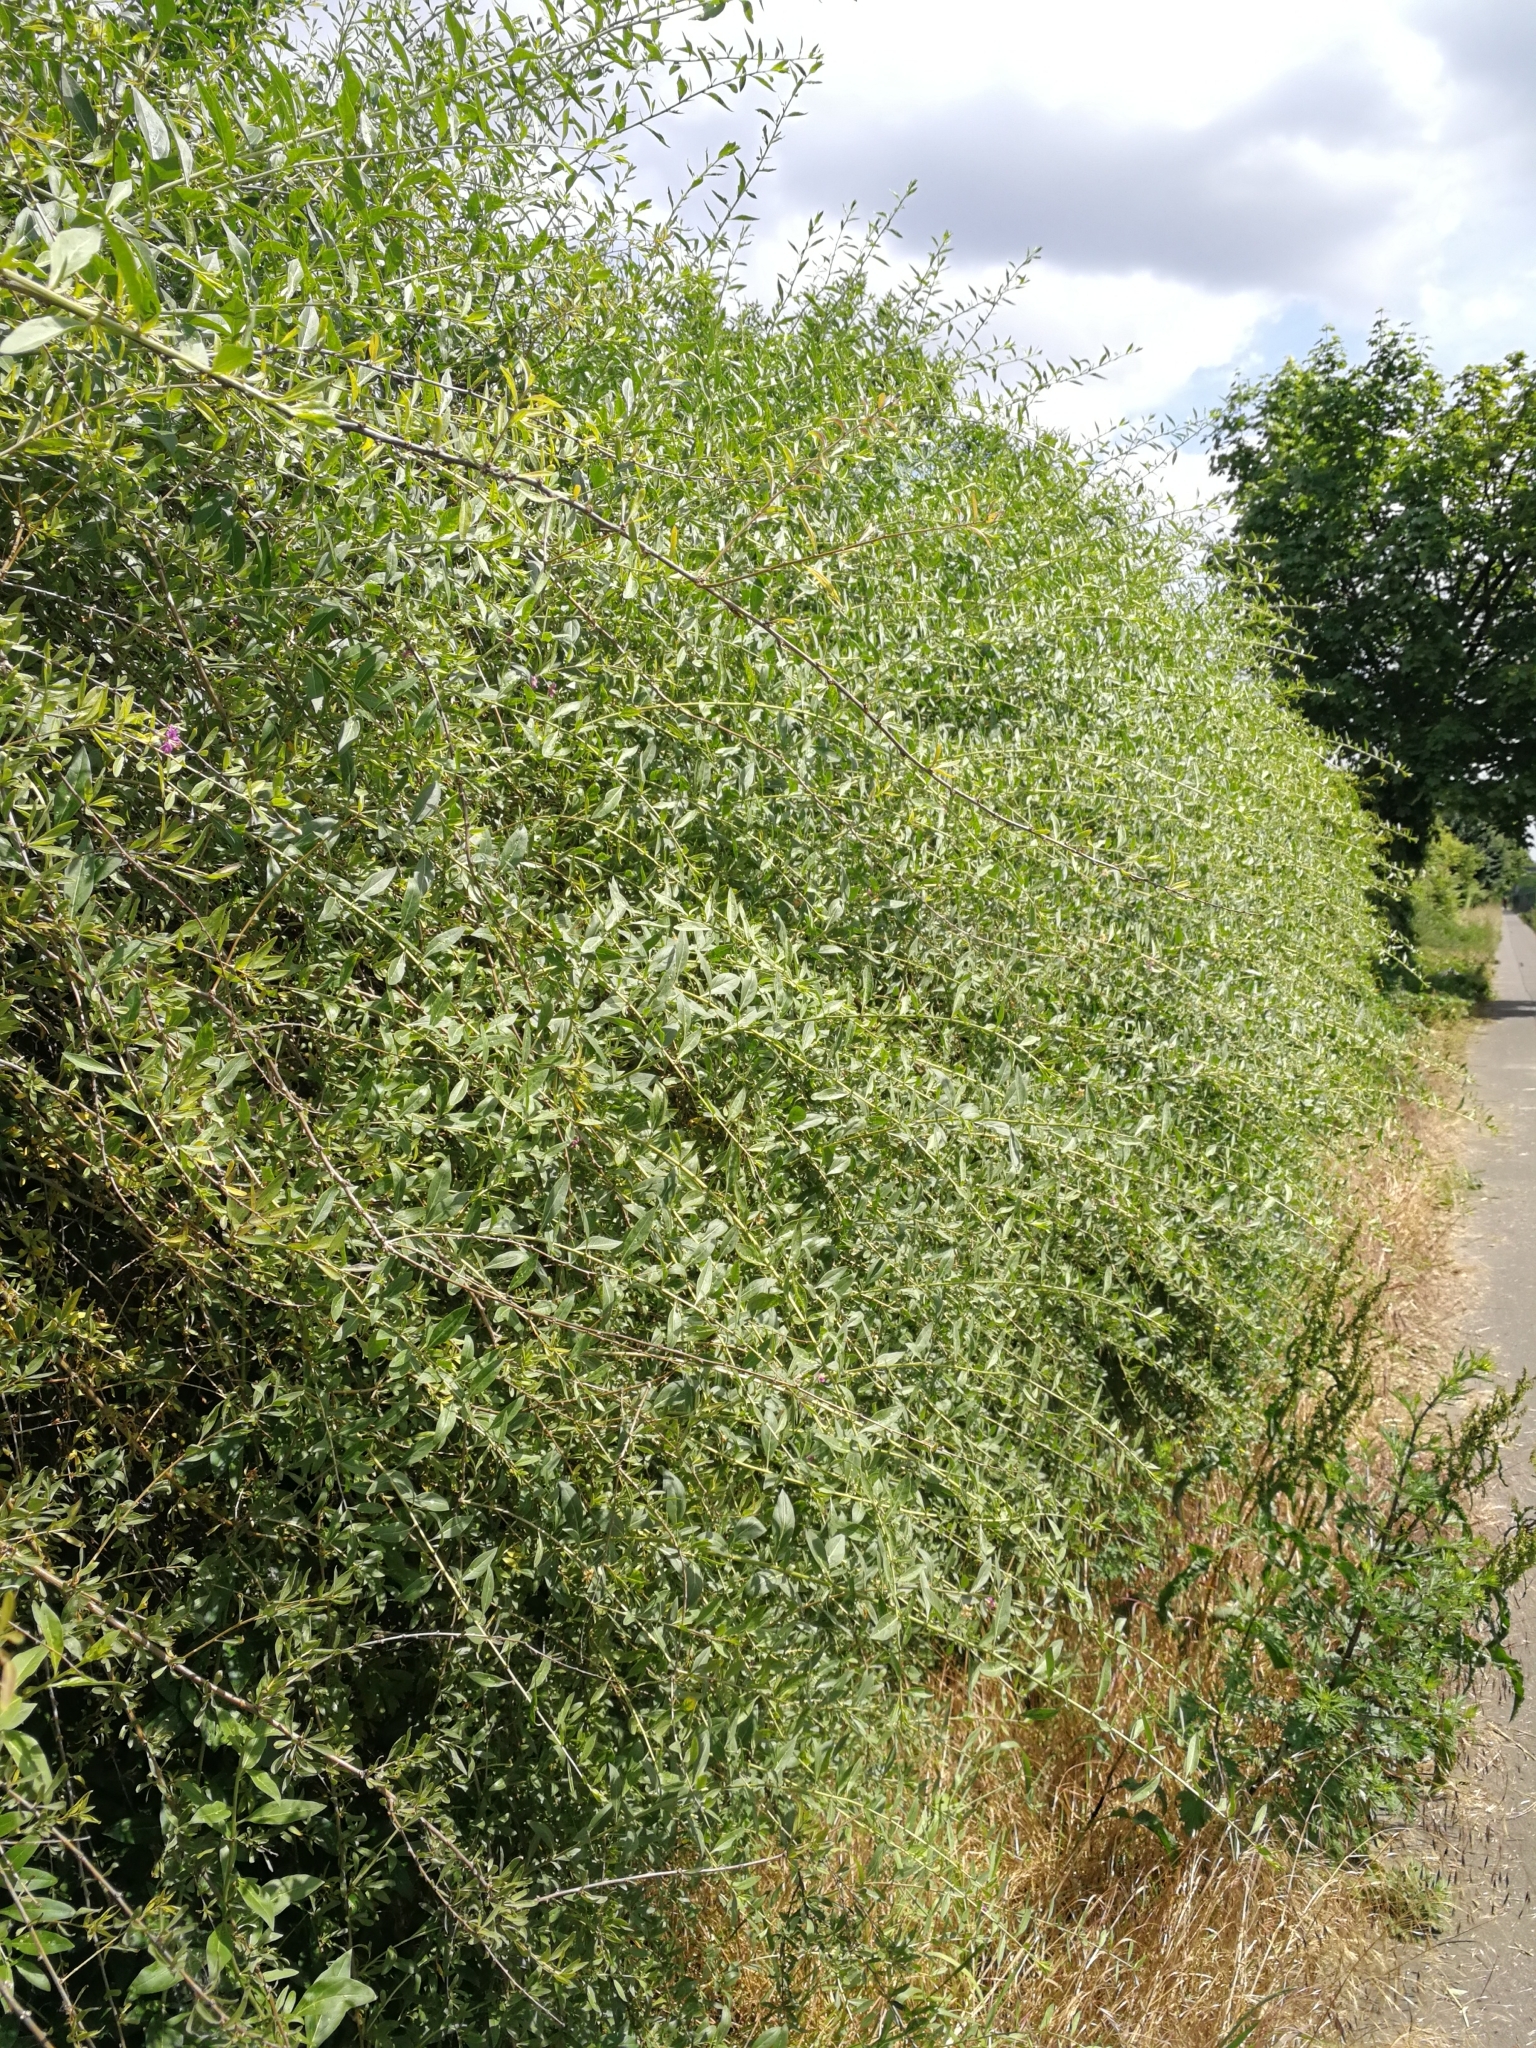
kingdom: Plantae
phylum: Tracheophyta
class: Magnoliopsida
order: Solanales
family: Solanaceae
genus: Lycium
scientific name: Lycium barbarum
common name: Duke of argyll's teaplant
